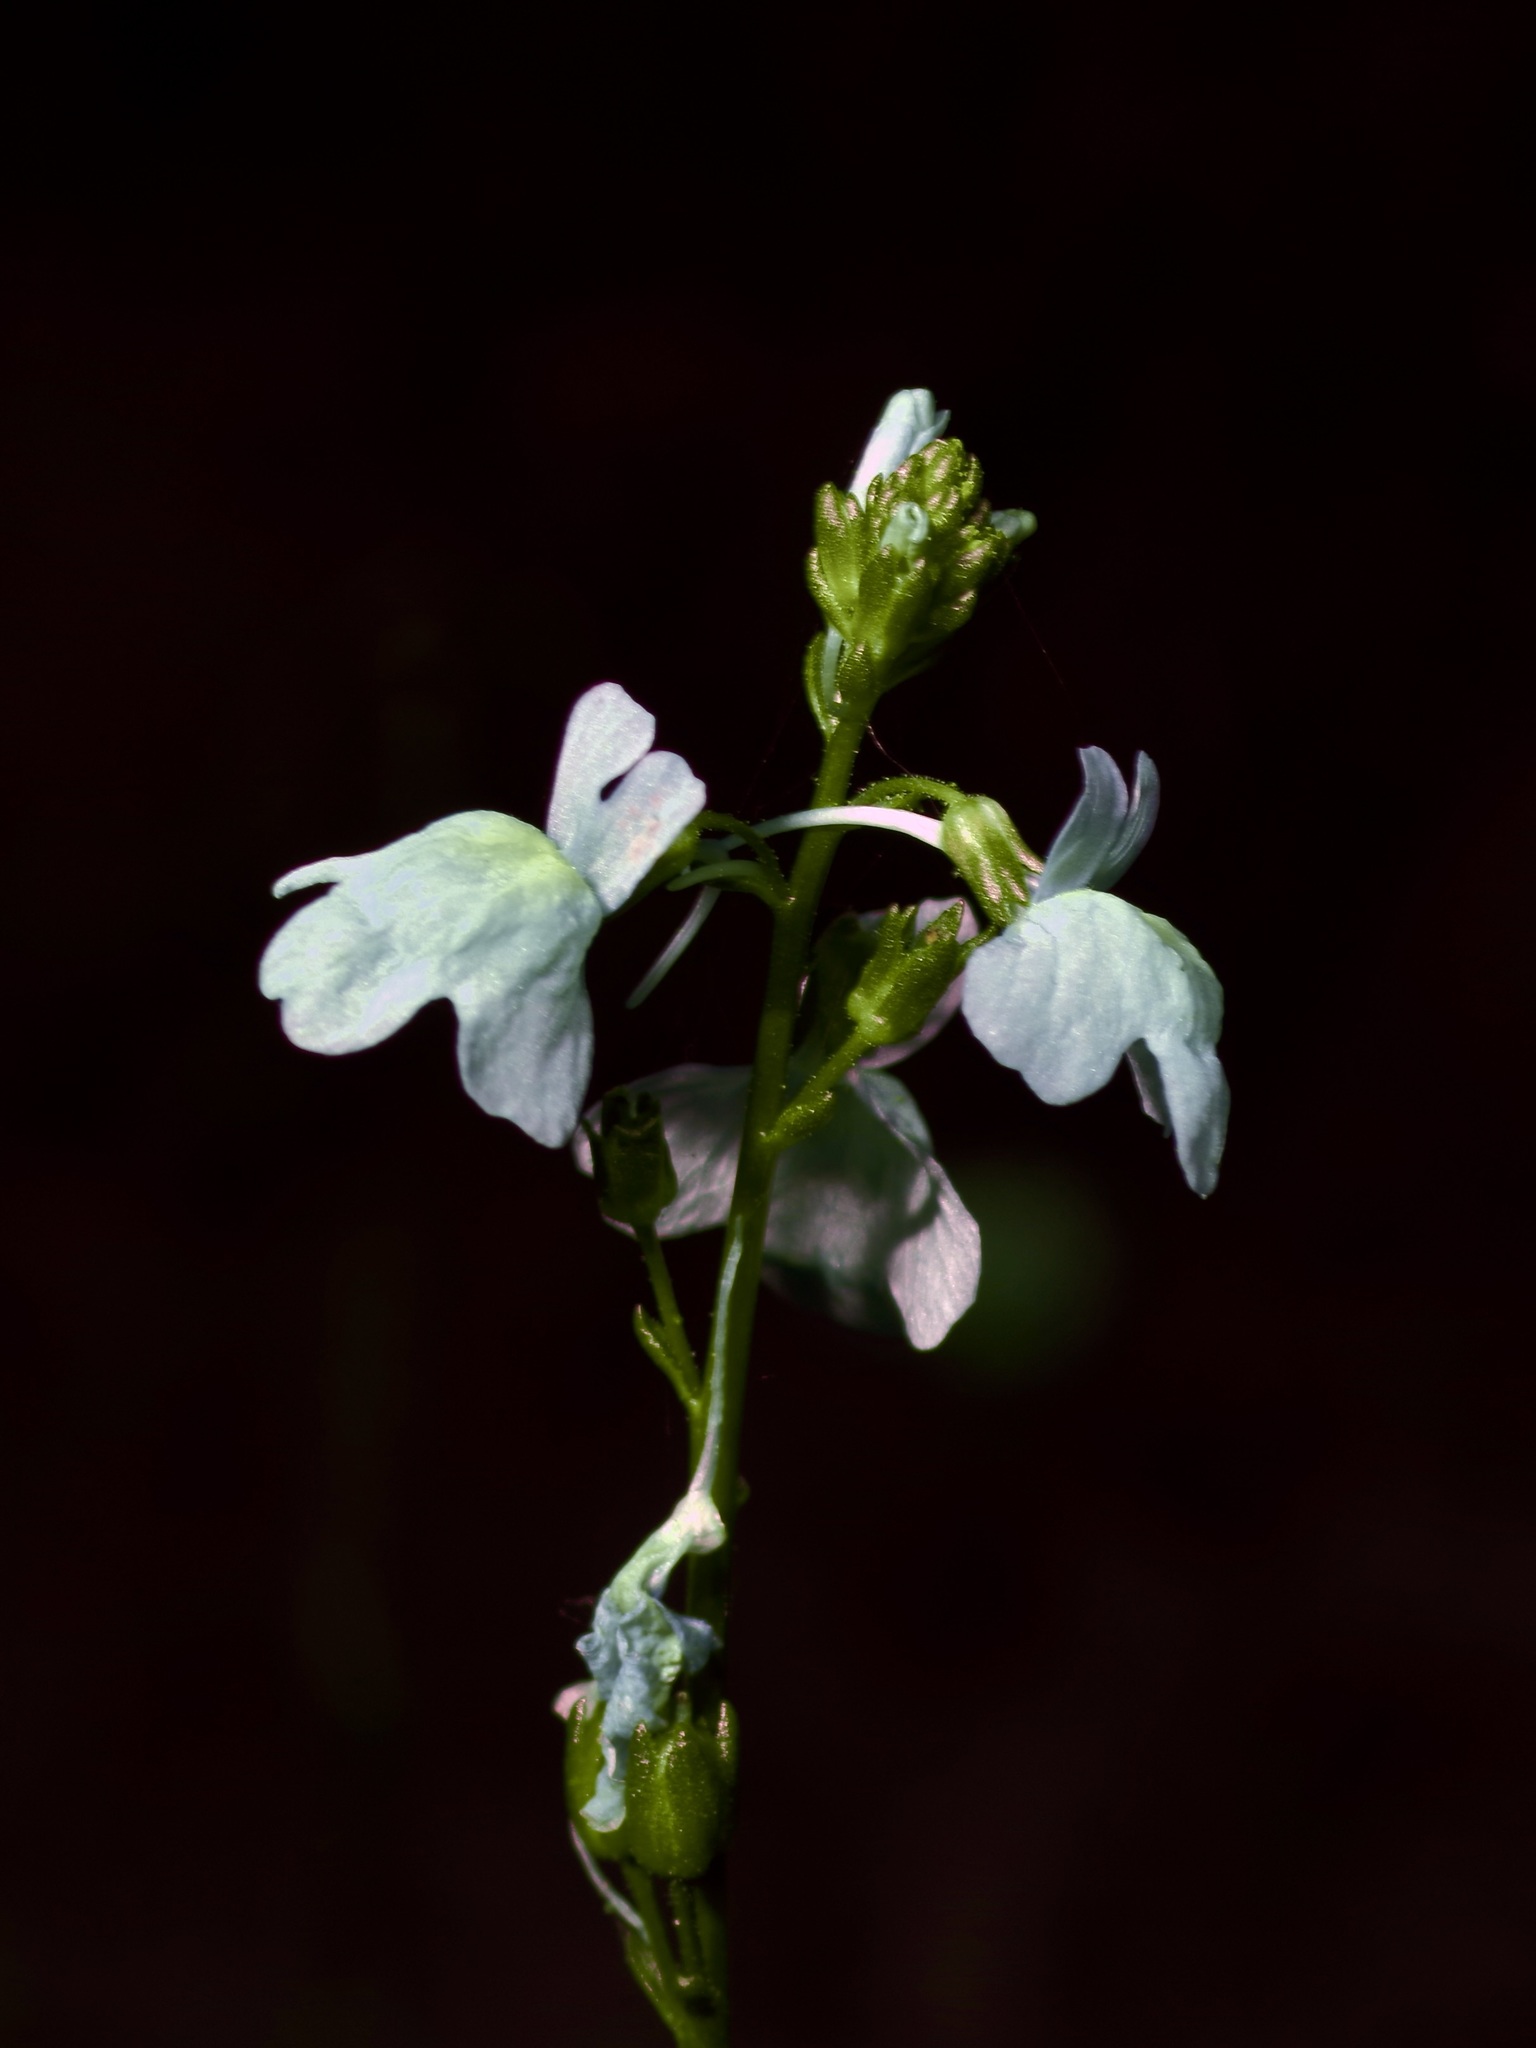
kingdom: Plantae
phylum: Tracheophyta
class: Magnoliopsida
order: Lamiales
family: Plantaginaceae
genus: Nuttallanthus
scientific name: Nuttallanthus texanus
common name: Texas toadflax
